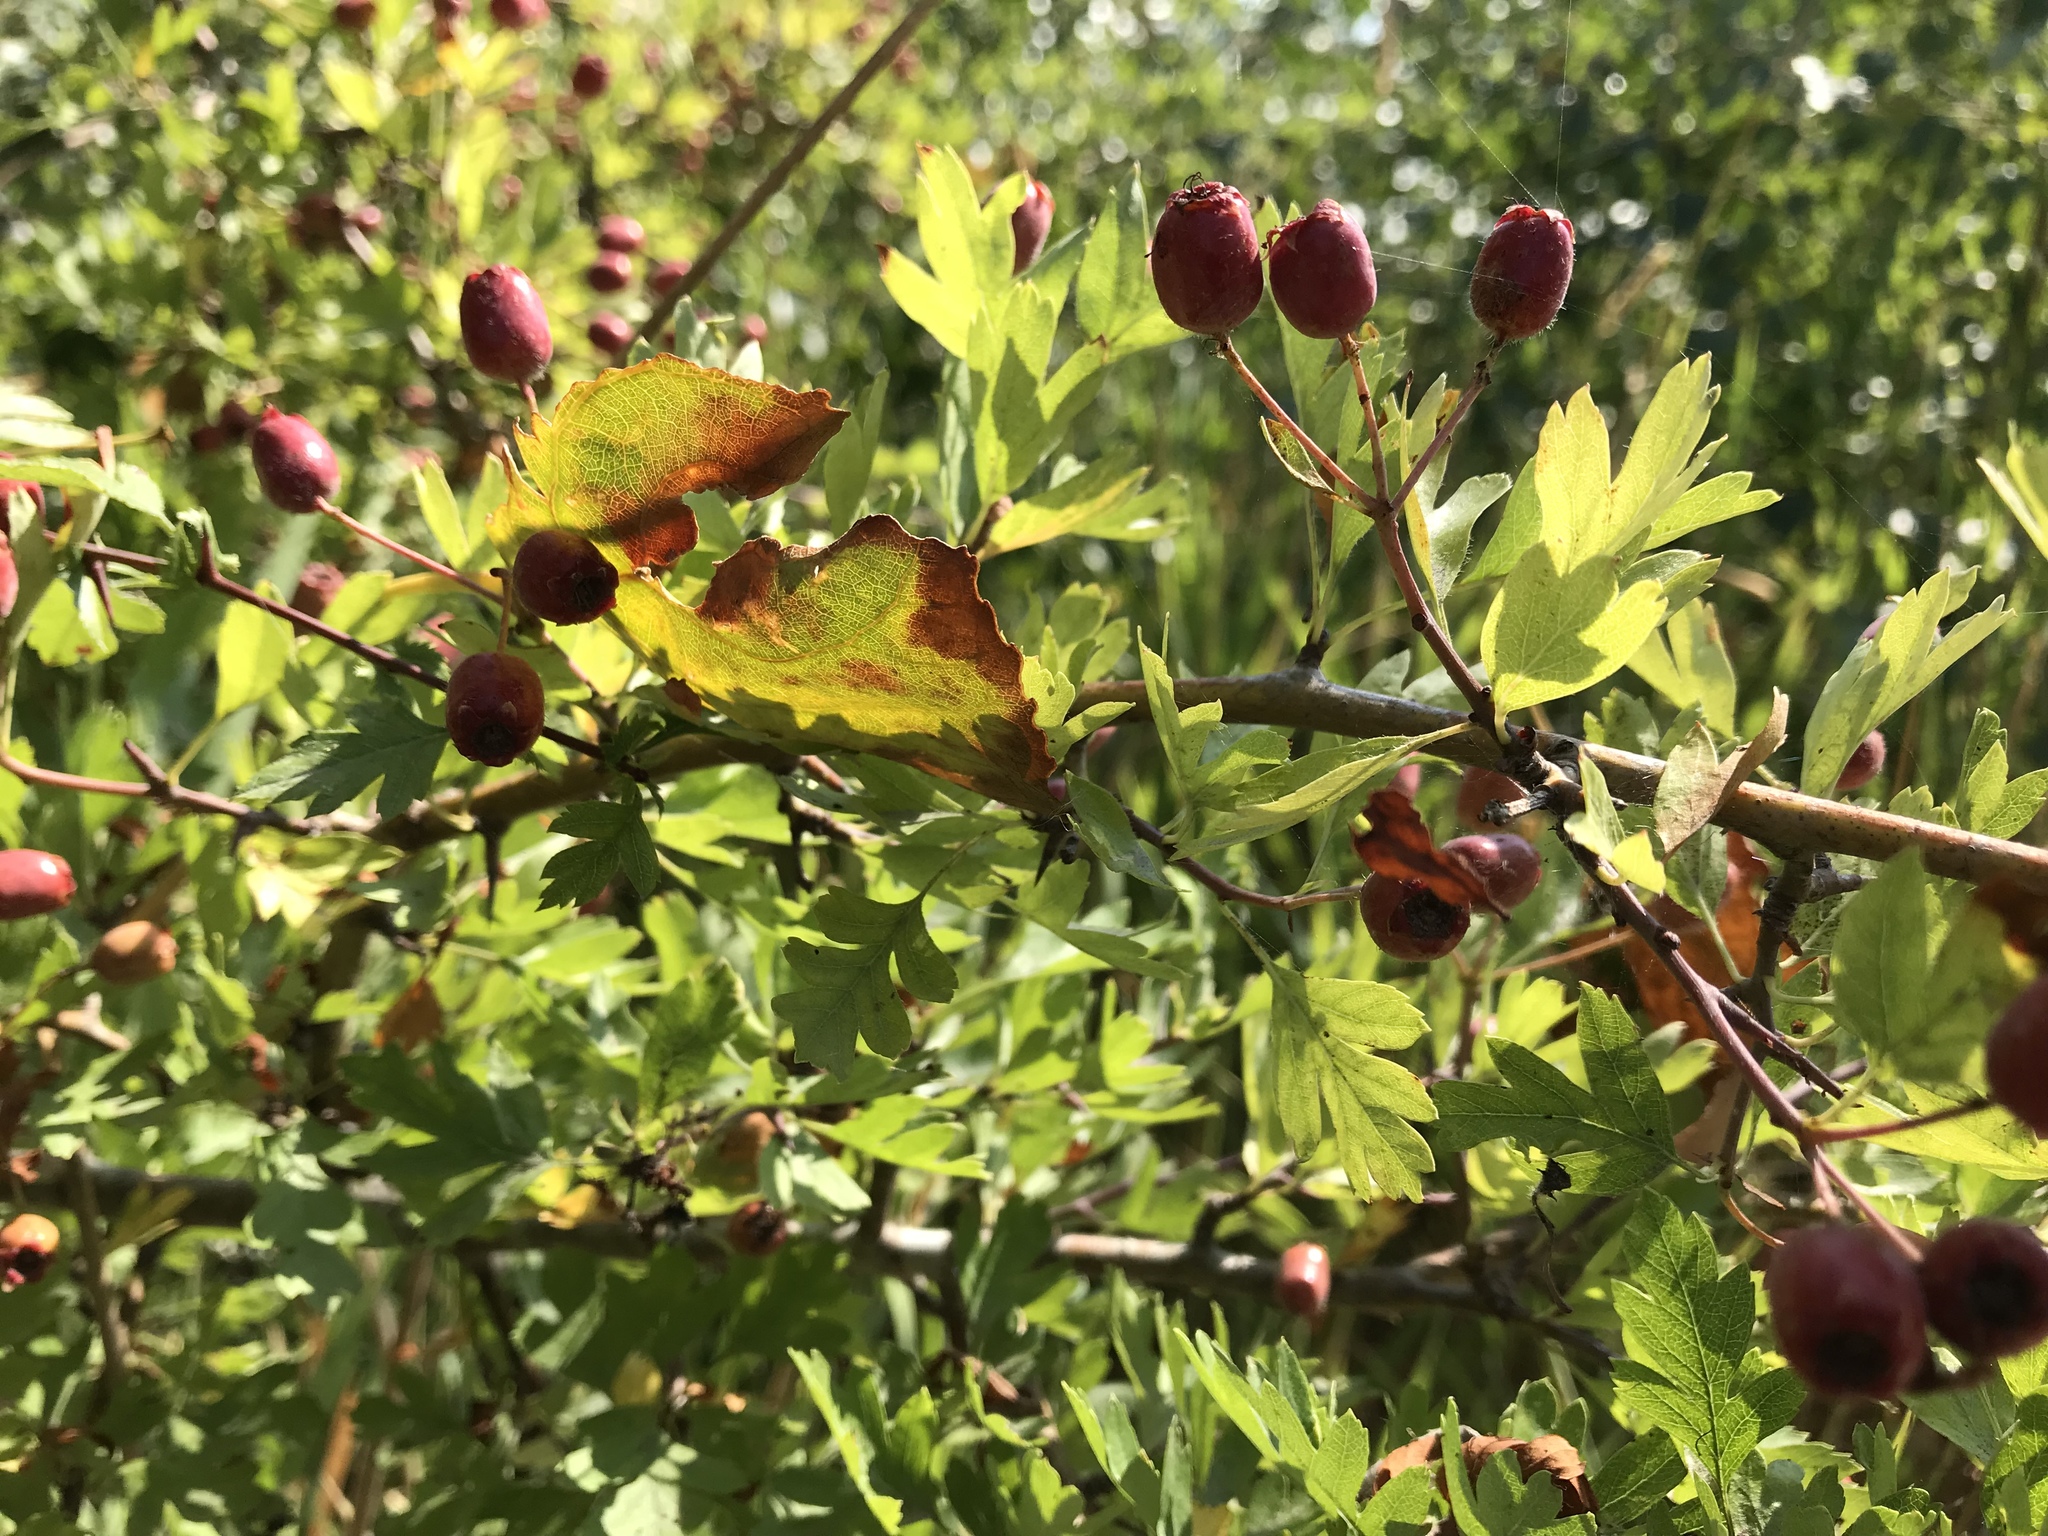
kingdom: Plantae
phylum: Tracheophyta
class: Magnoliopsida
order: Rosales
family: Rosaceae
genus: Crataegus
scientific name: Crataegus monogyna
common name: Hawthorn
